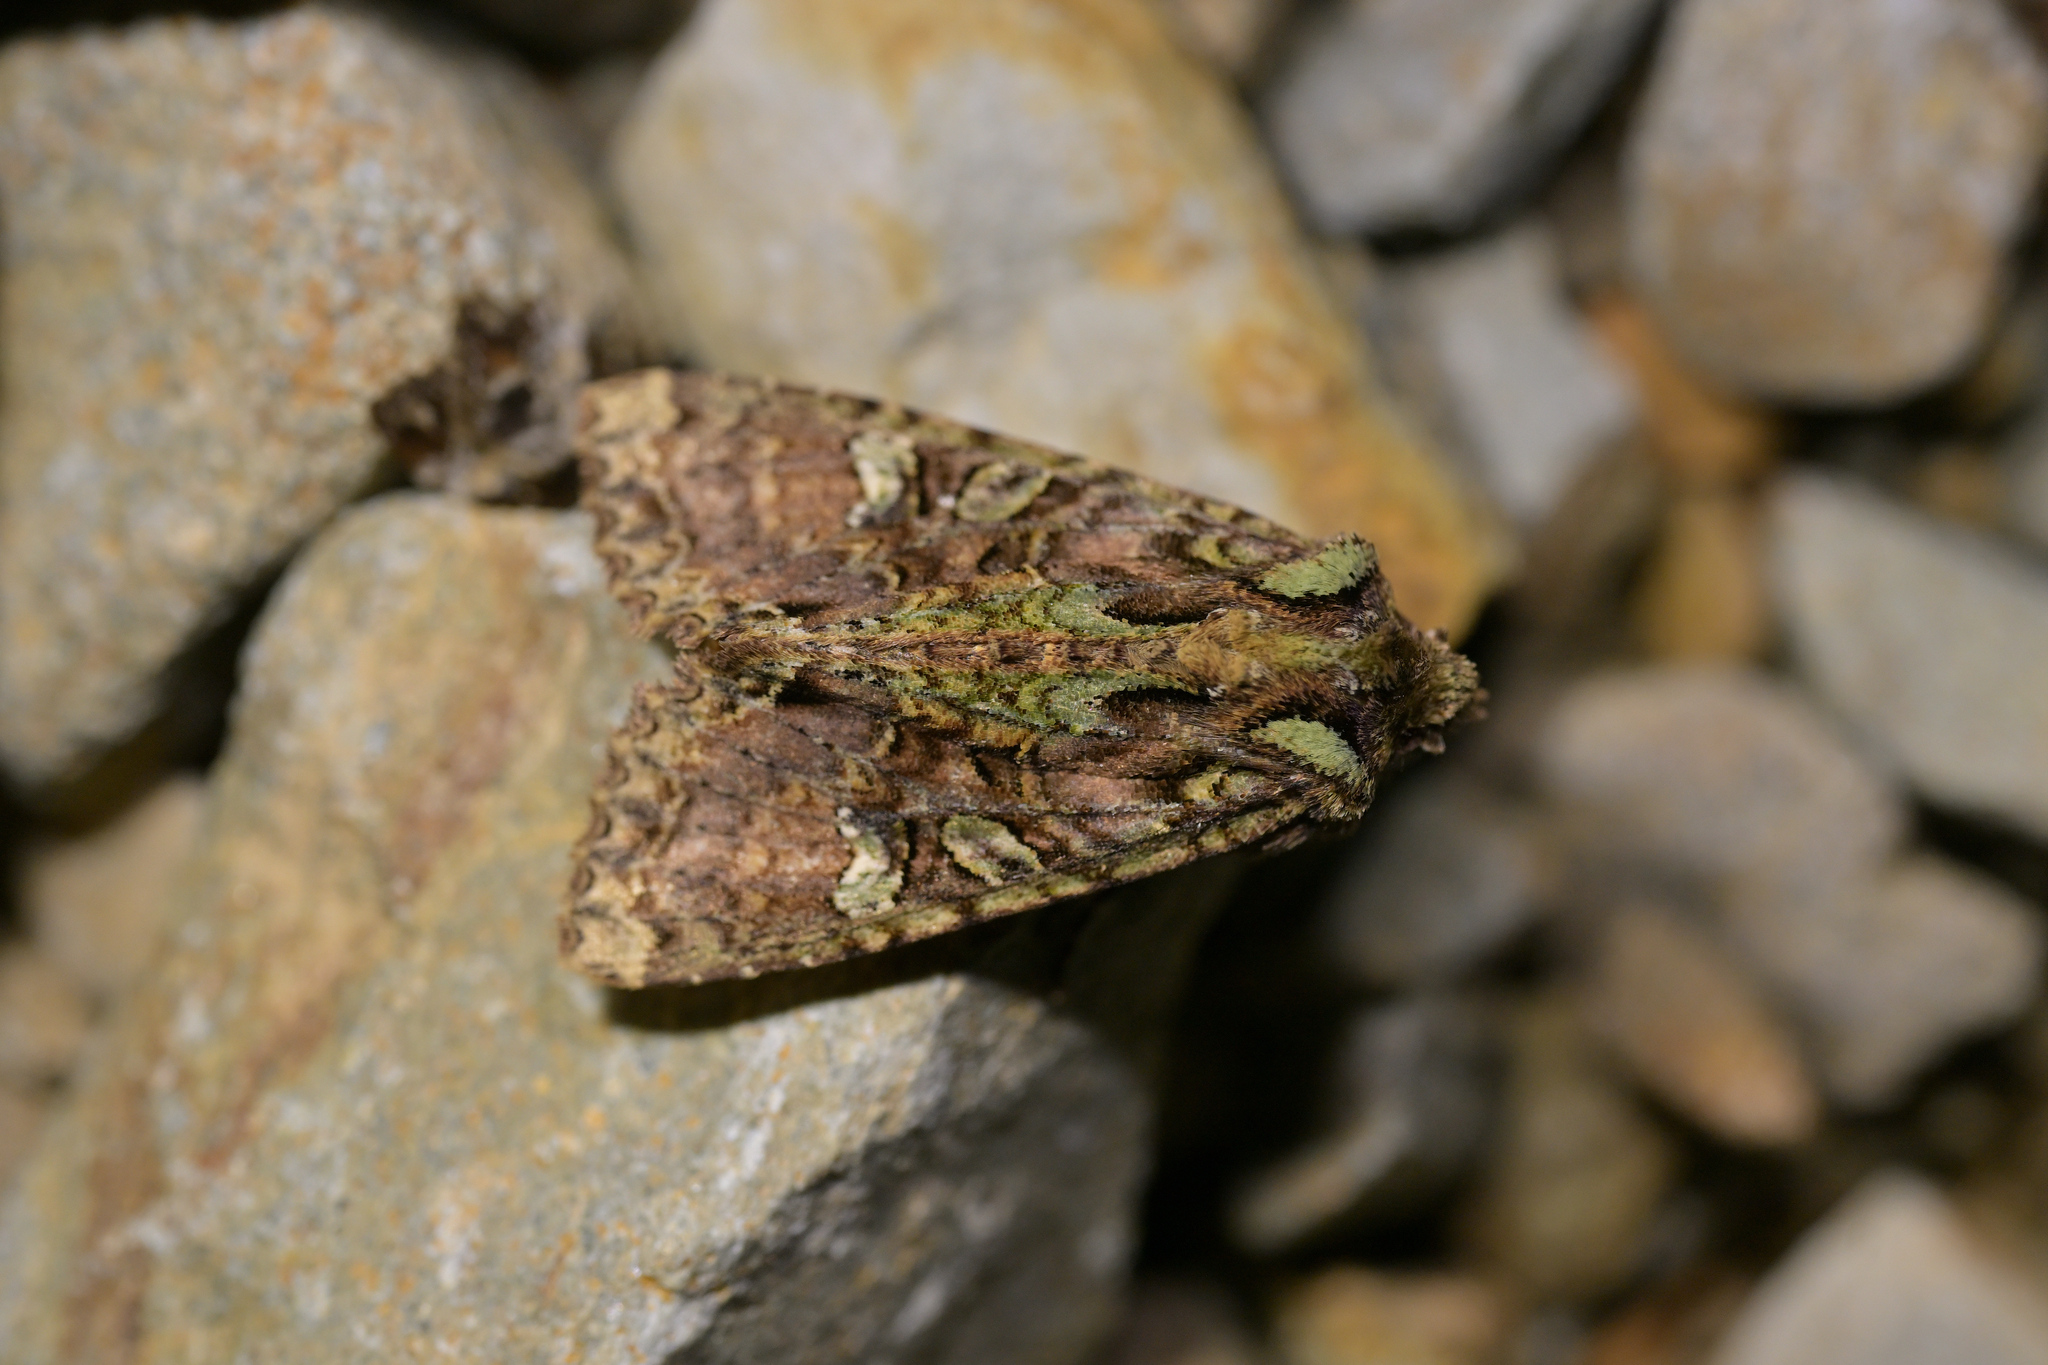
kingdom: Animalia
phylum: Arthropoda
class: Insecta
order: Lepidoptera
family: Noctuidae
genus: Meterana
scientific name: Meterana
